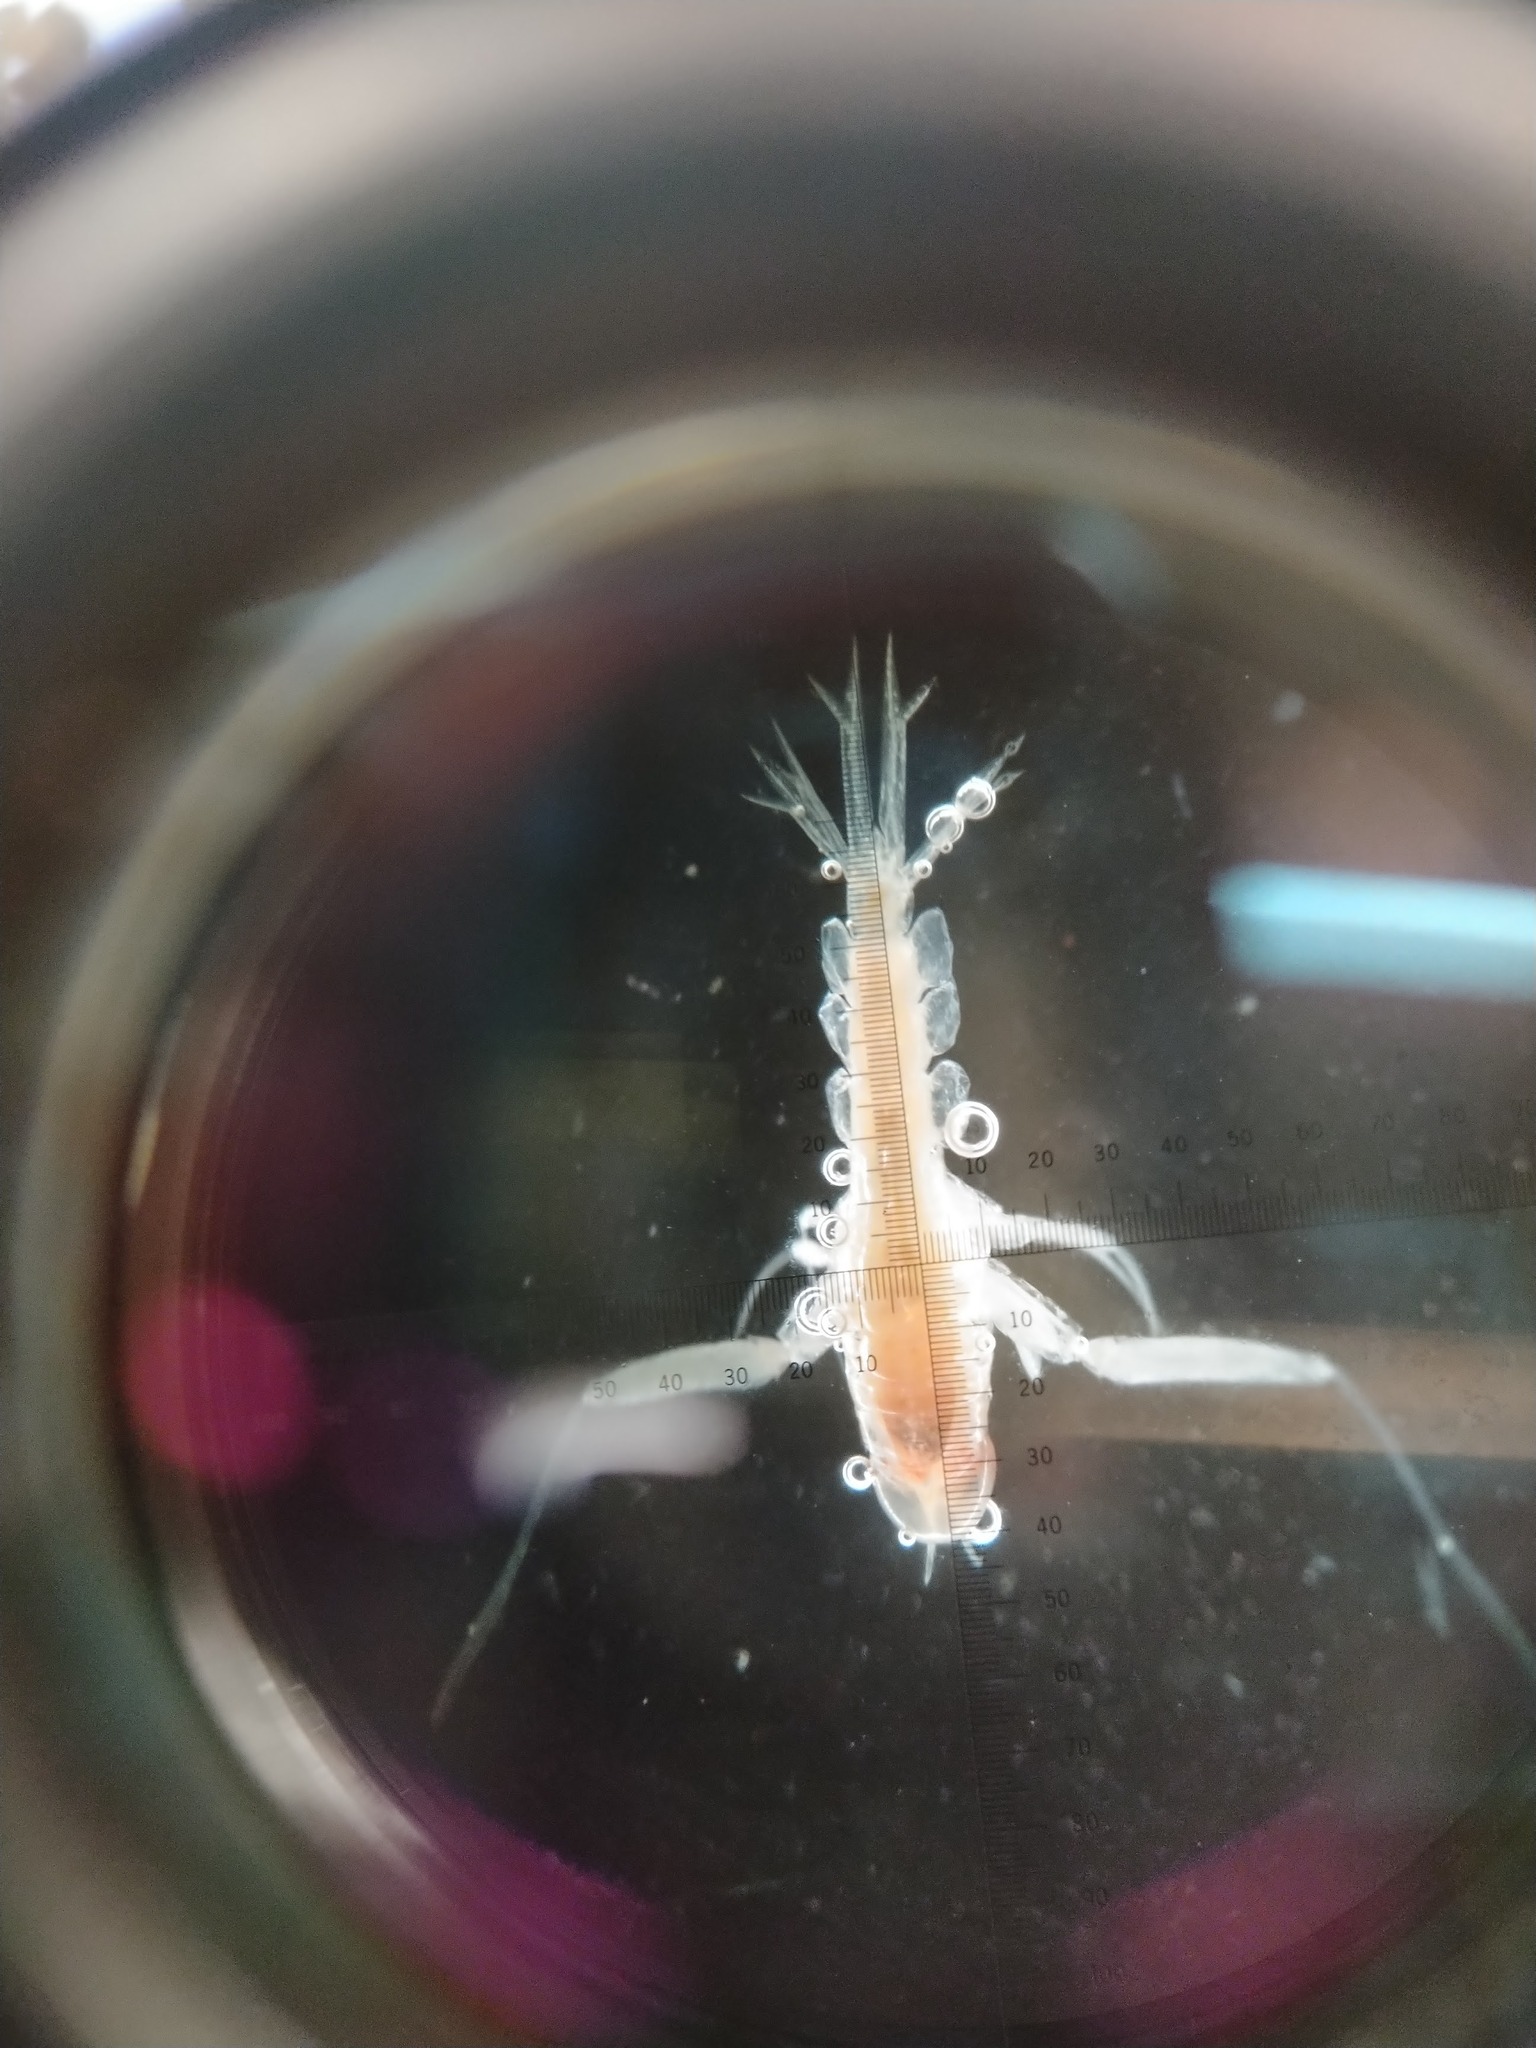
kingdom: Animalia
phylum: Arthropoda
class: Malacostraca
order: Amphipoda
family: Hyperiidae
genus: Themisto
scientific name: Themisto compressa
